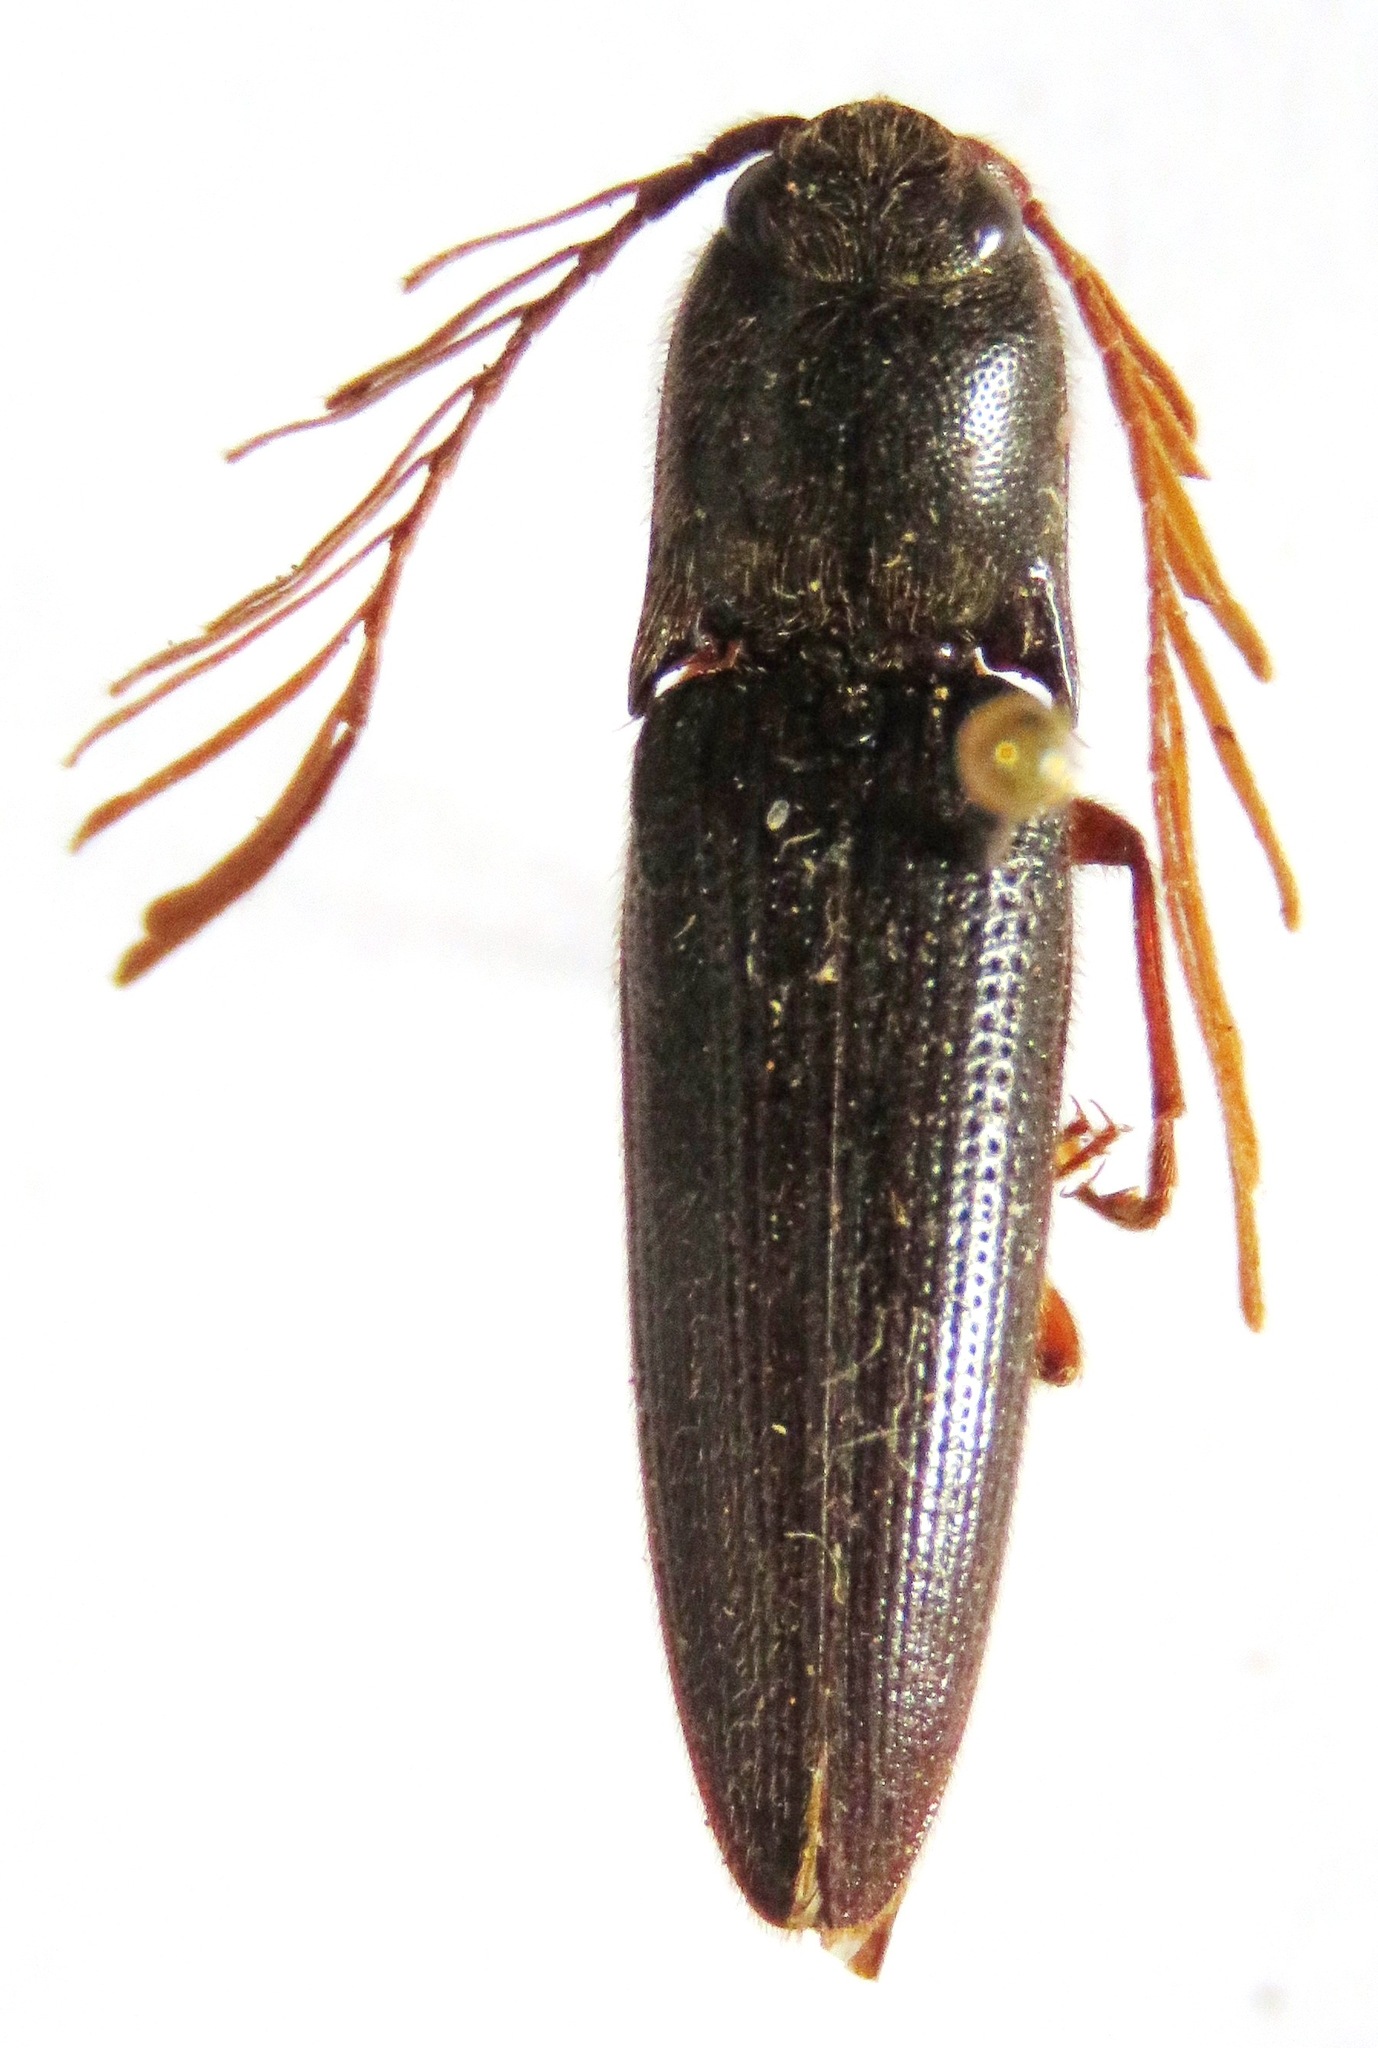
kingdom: Animalia
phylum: Arthropoda
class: Insecta
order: Coleoptera
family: Elateridae
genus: Dicrepidius
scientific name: Dicrepidius corvinus
